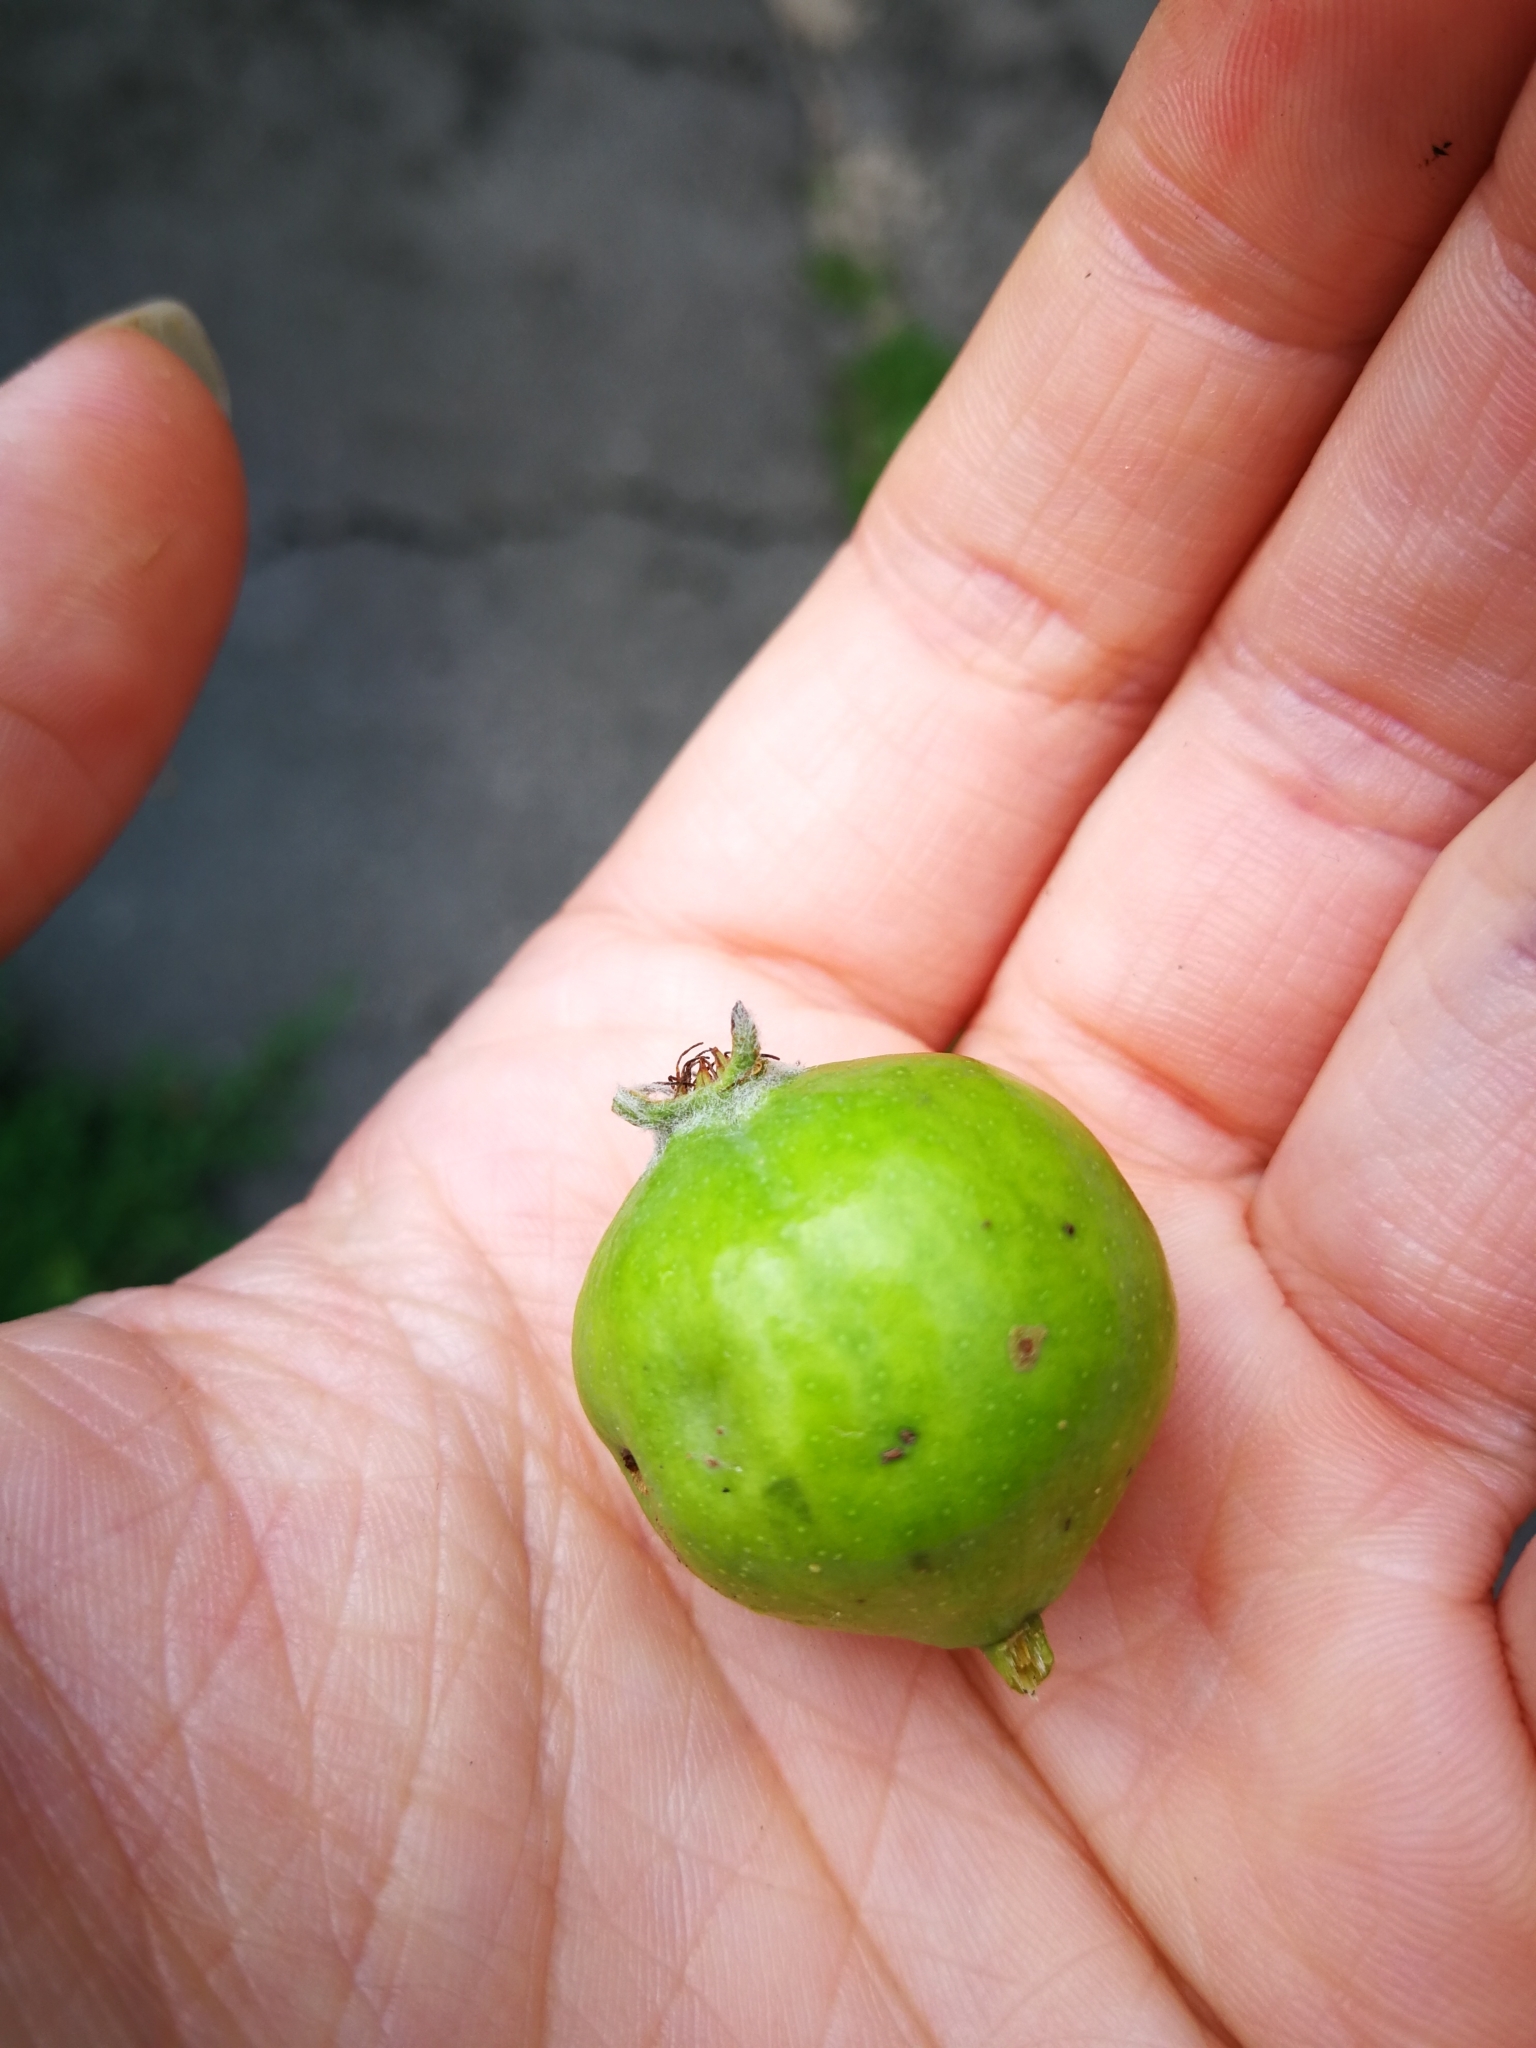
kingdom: Plantae
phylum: Tracheophyta
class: Magnoliopsida
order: Rosales
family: Rosaceae
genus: Pyrus
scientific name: Pyrus communis
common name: Pear
